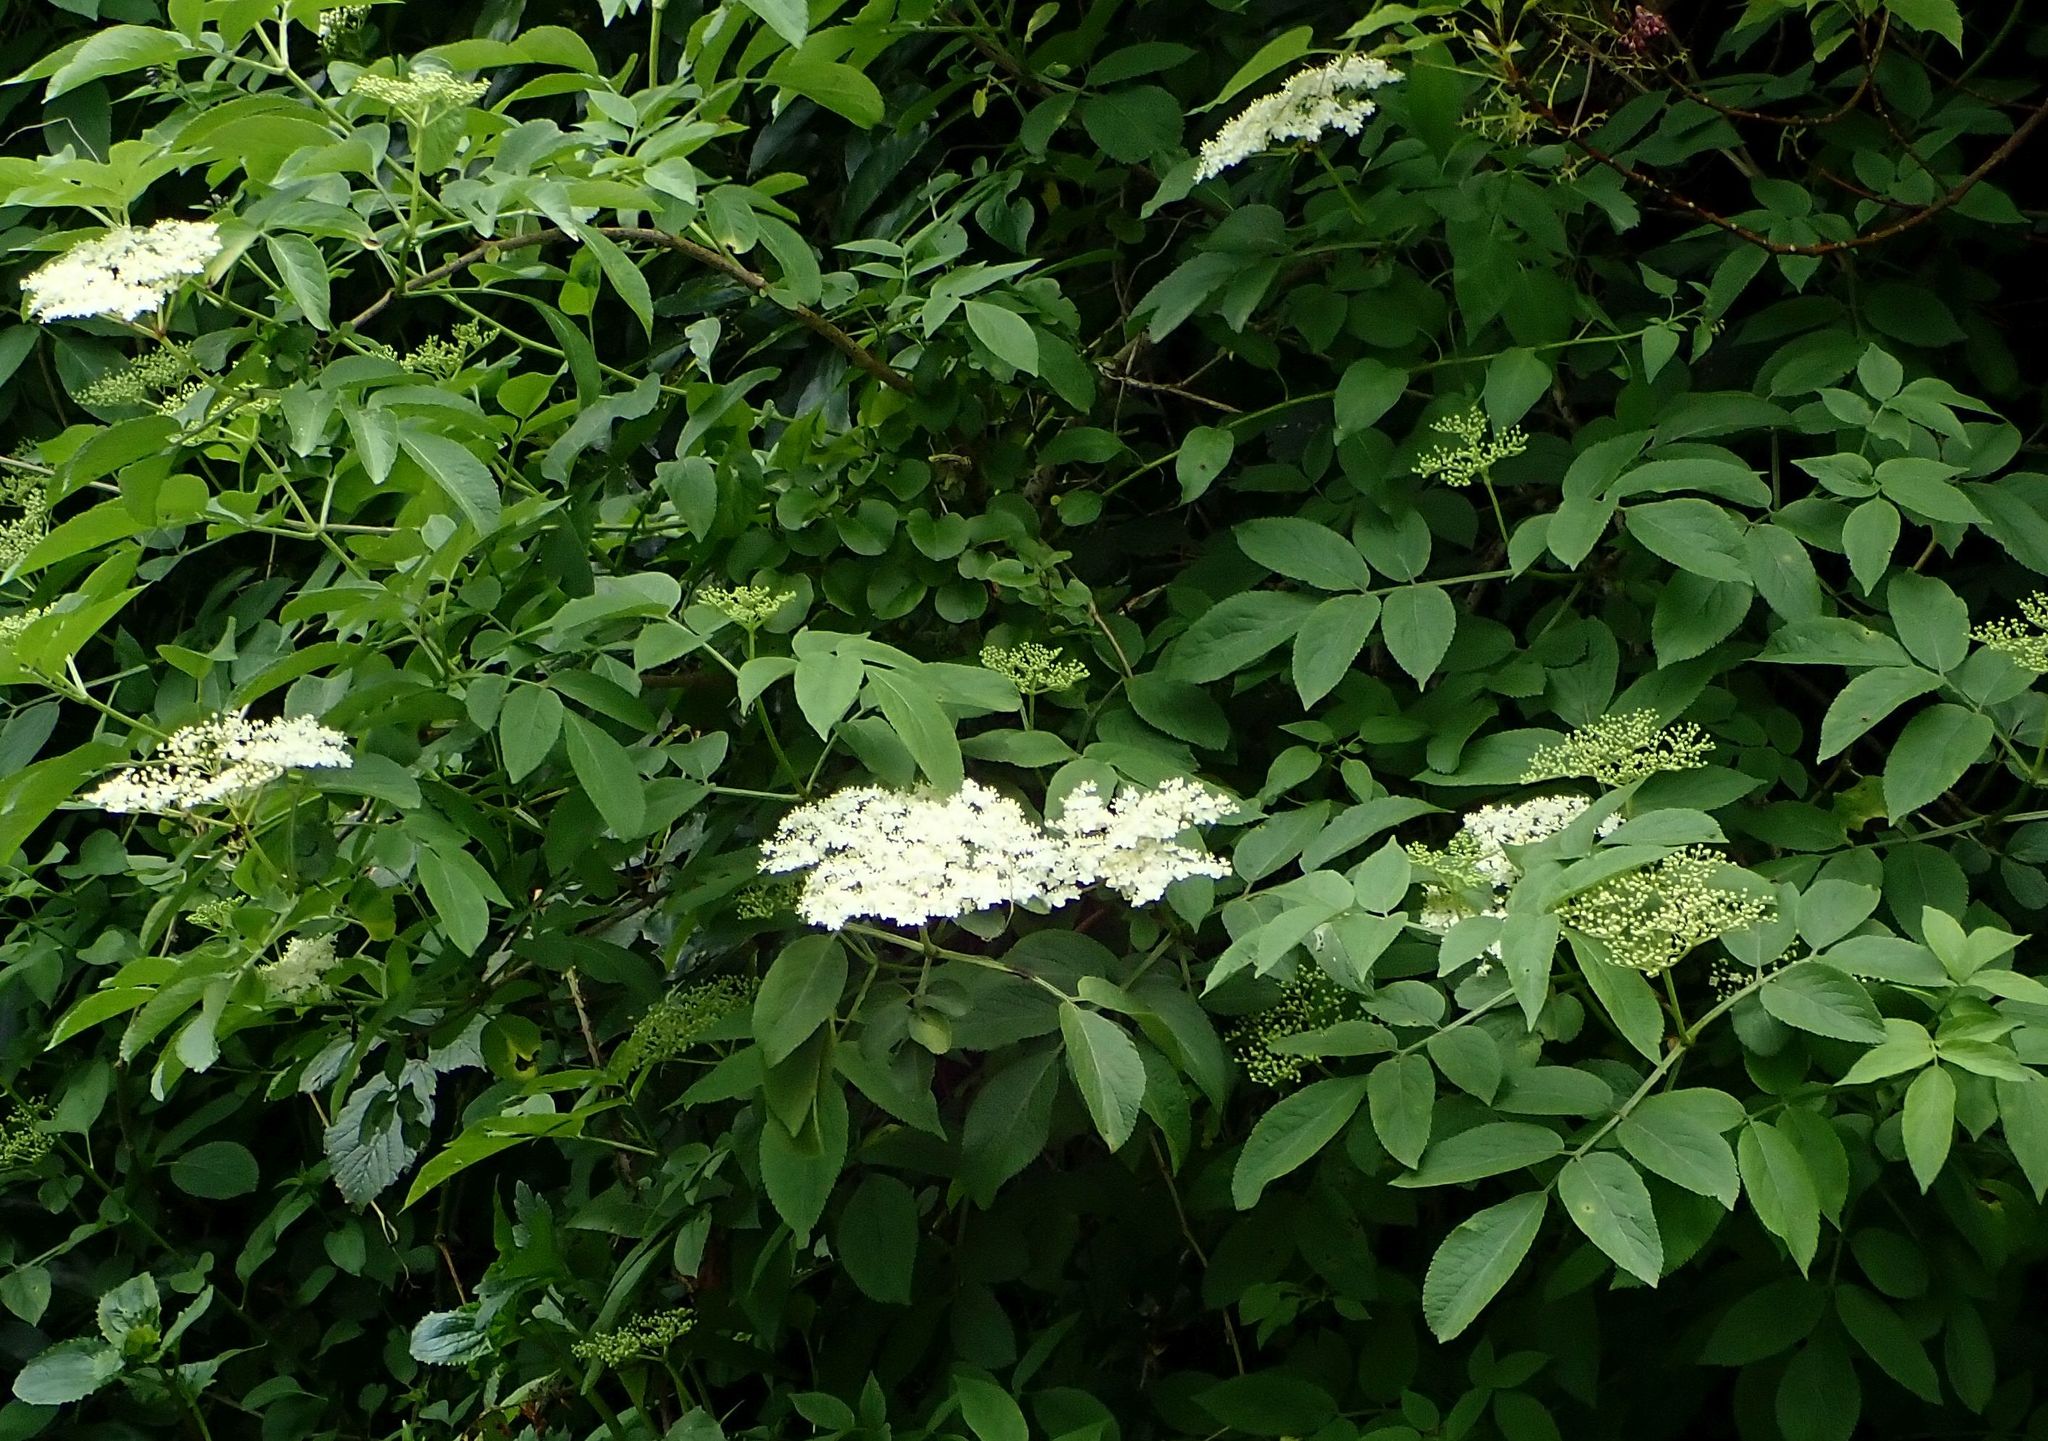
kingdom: Plantae
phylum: Tracheophyta
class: Magnoliopsida
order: Dipsacales
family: Viburnaceae
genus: Sambucus
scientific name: Sambucus nigra
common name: Elder
